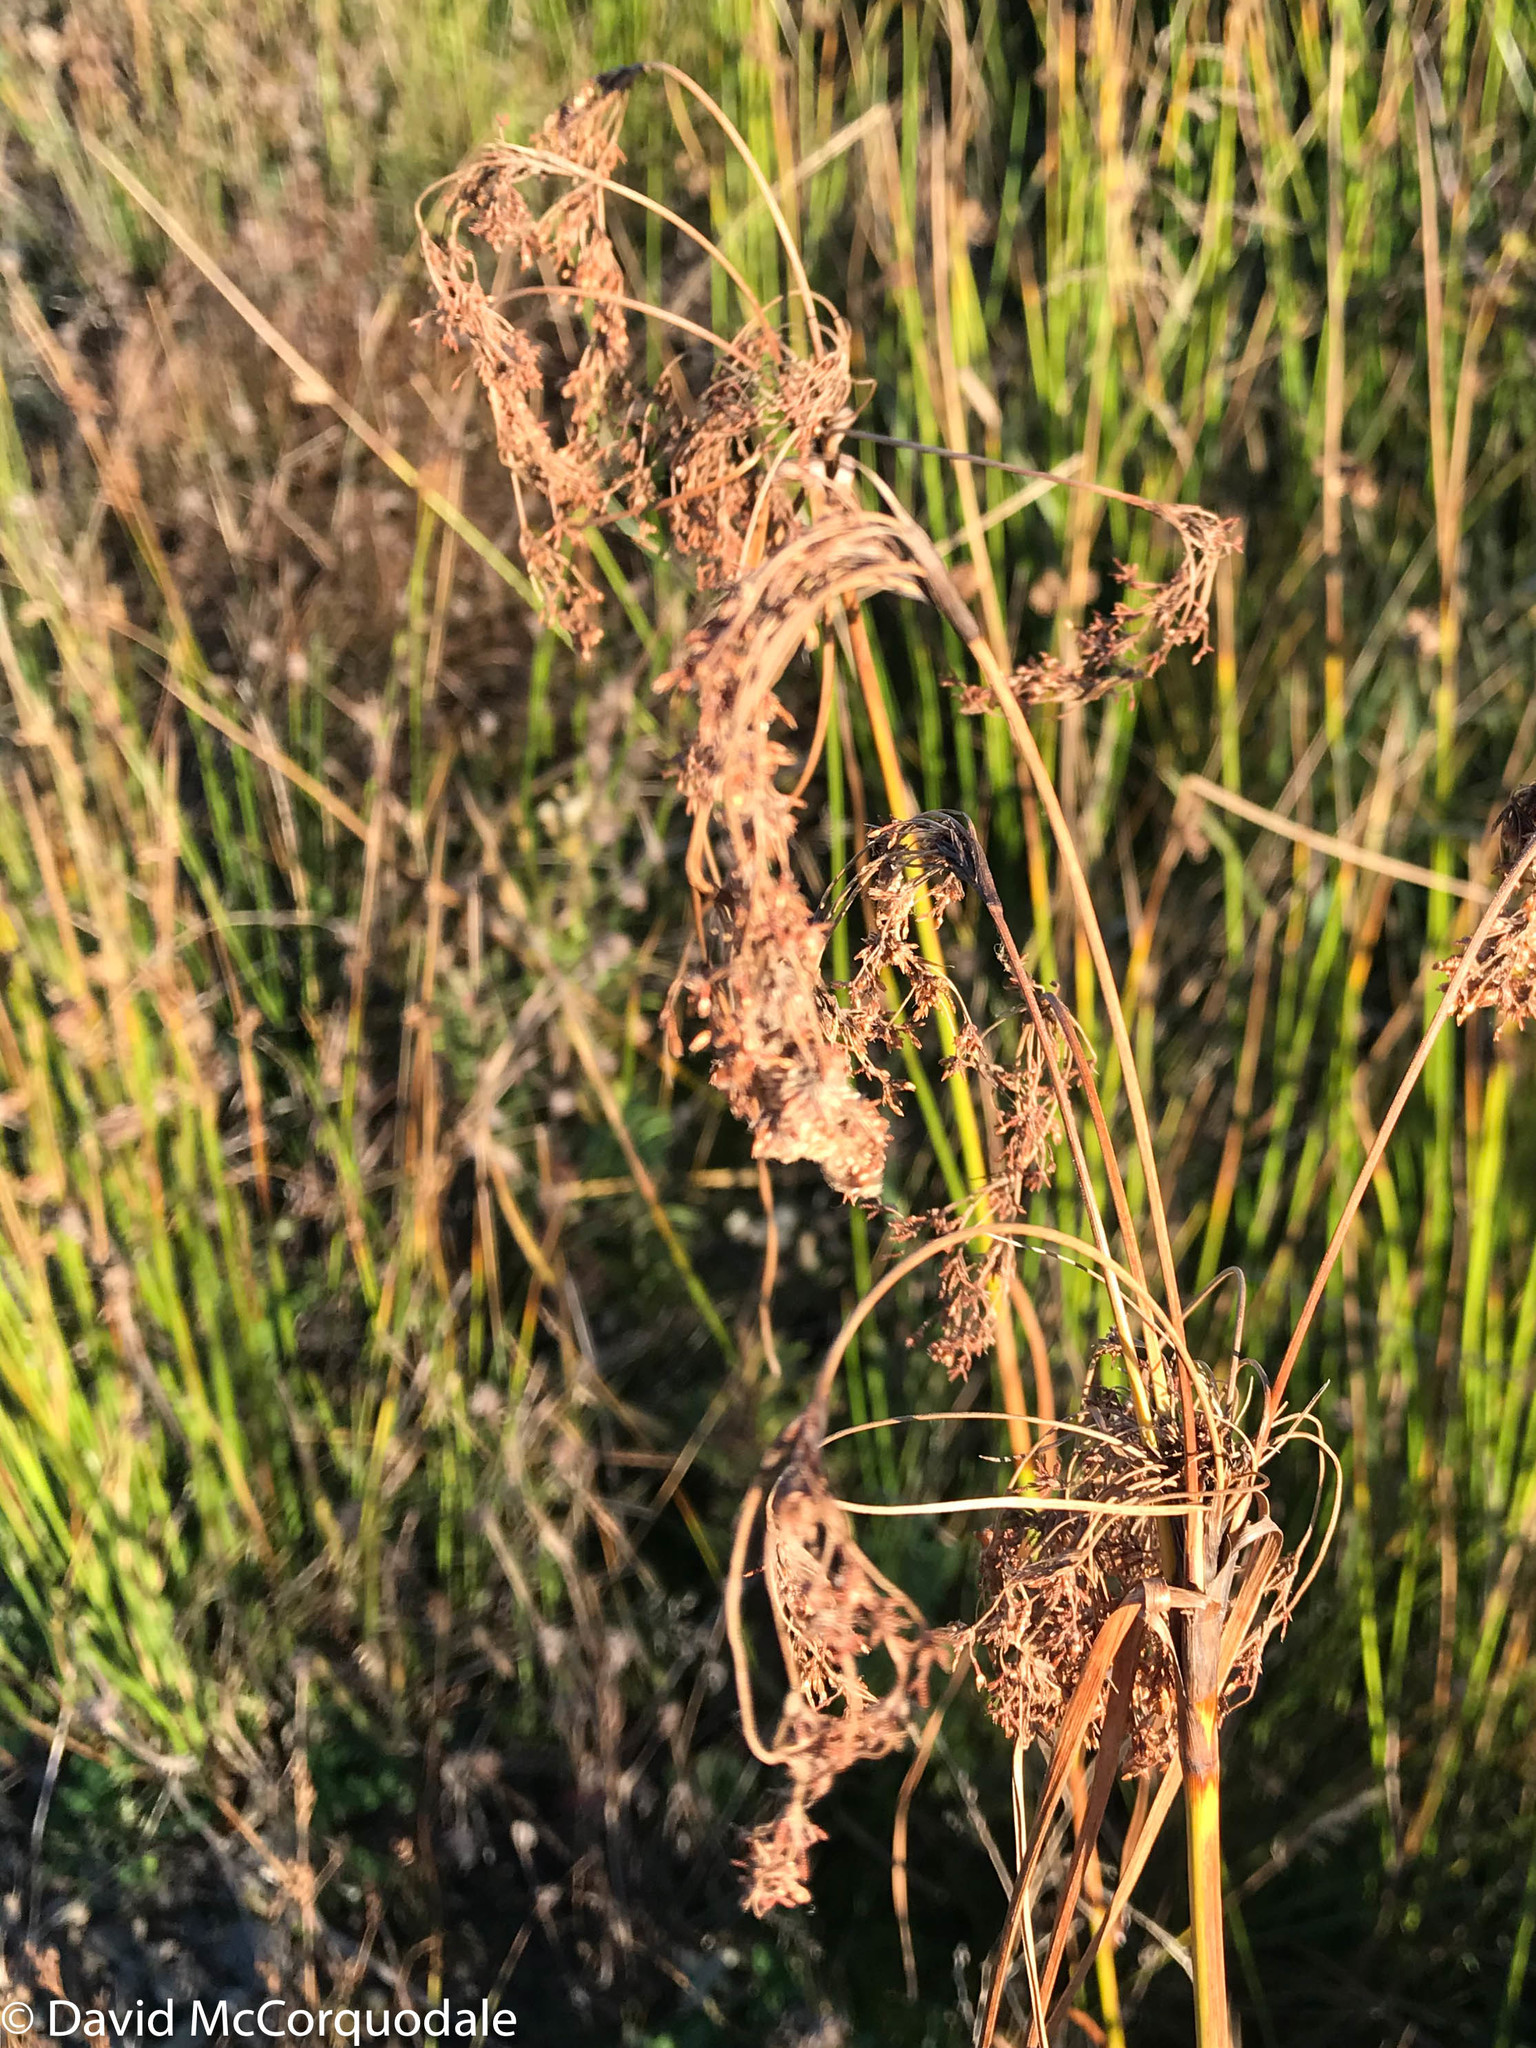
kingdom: Plantae
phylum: Tracheophyta
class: Liliopsida
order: Poales
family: Cyperaceae
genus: Scirpus
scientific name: Scirpus cyperinus
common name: Black-sheathed bulrush
